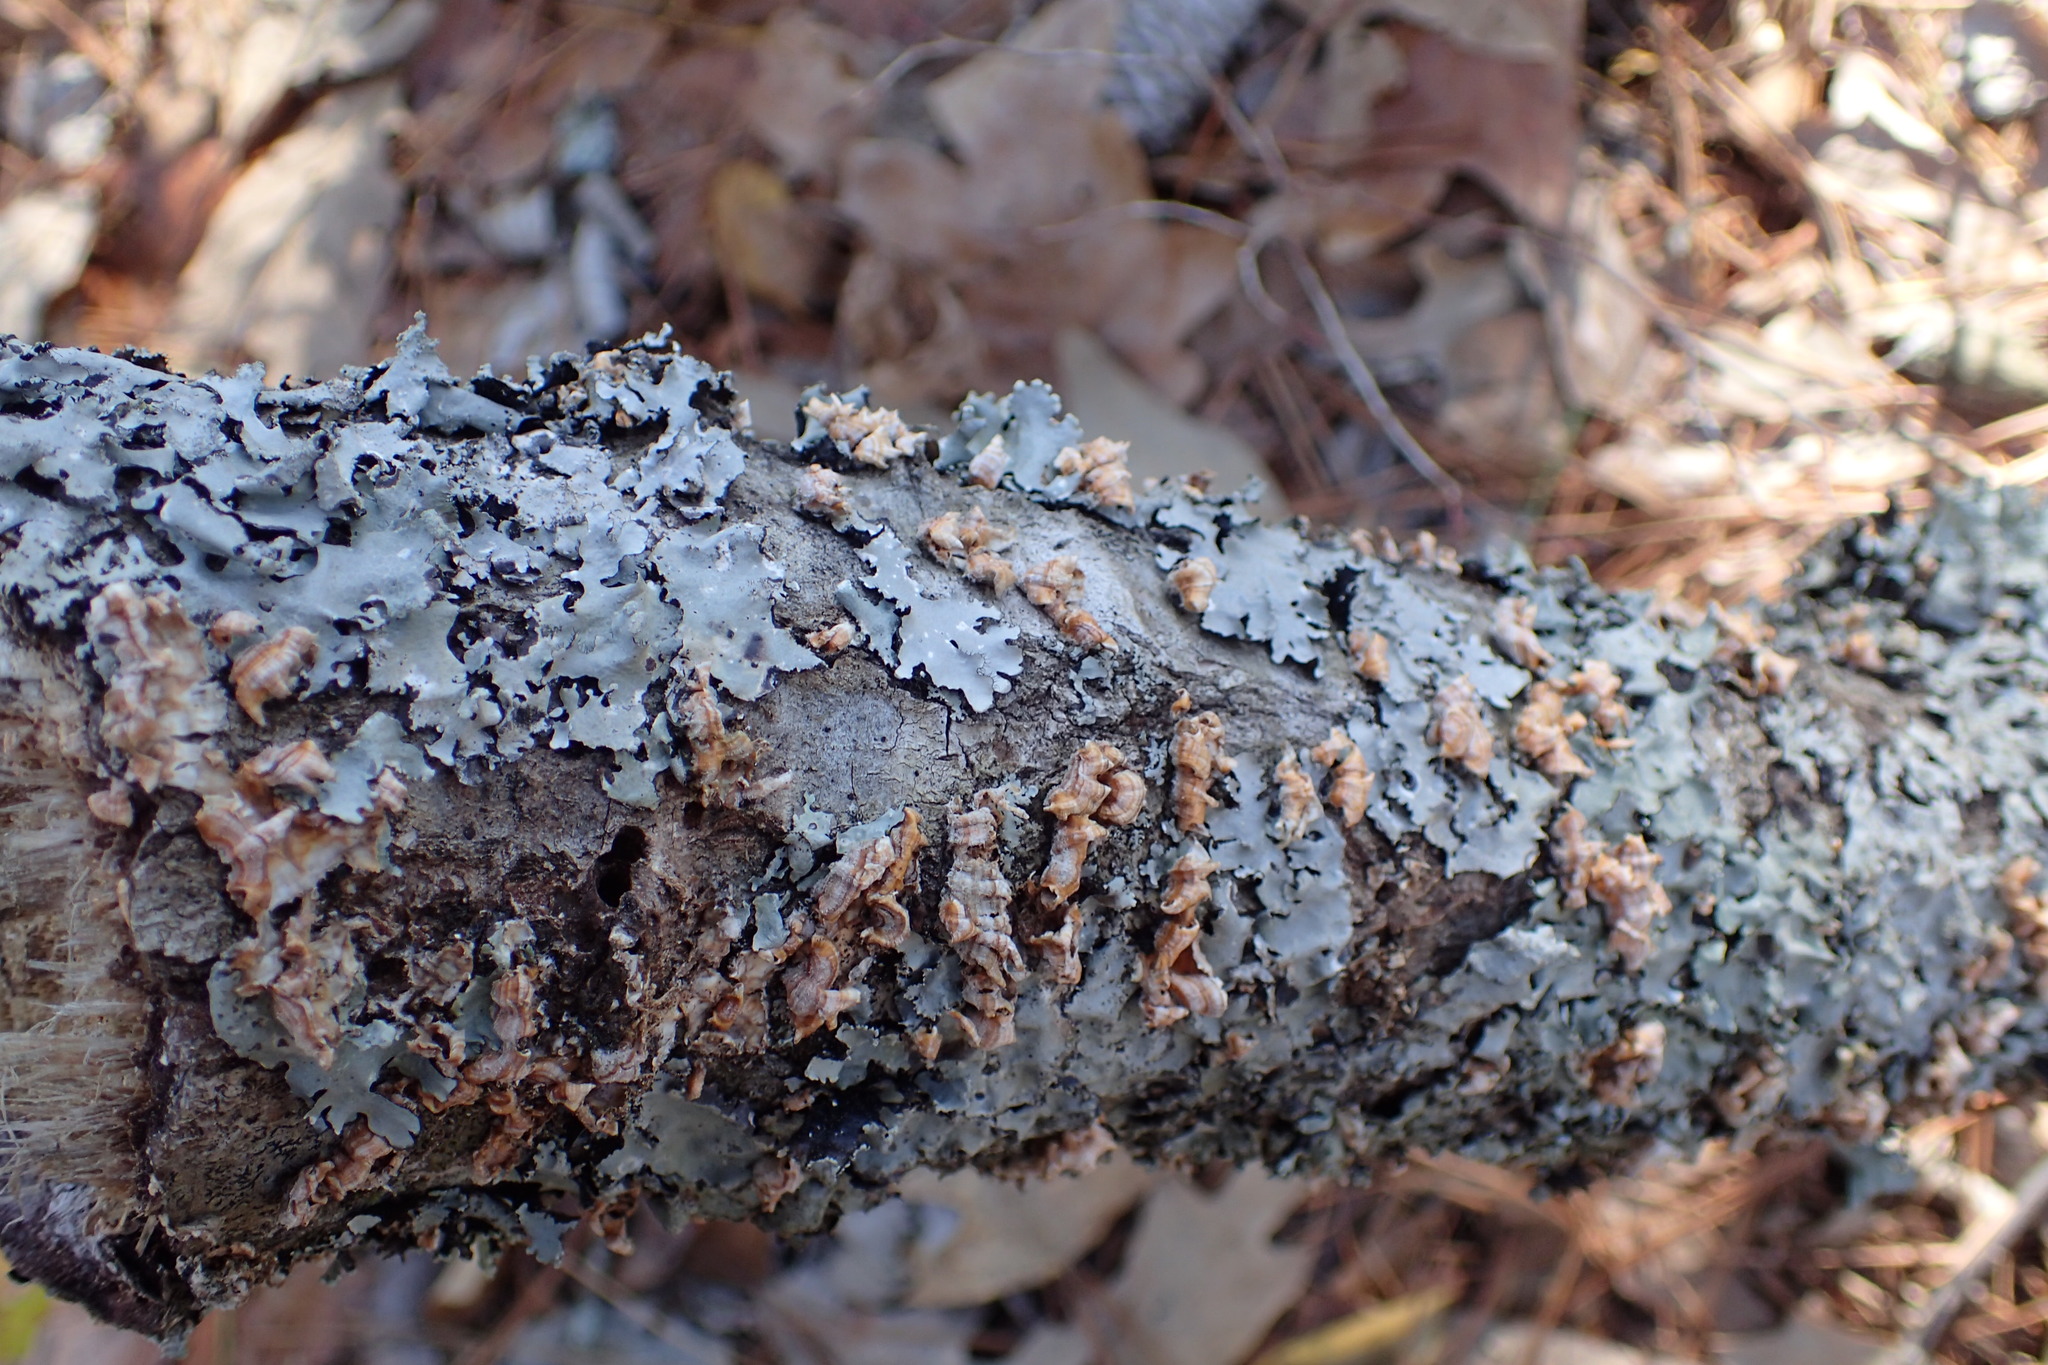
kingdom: Fungi
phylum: Basidiomycota
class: Agaricomycetes
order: Russulales
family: Stereaceae
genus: Stereum
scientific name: Stereum complicatum
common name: Crowded parchment
